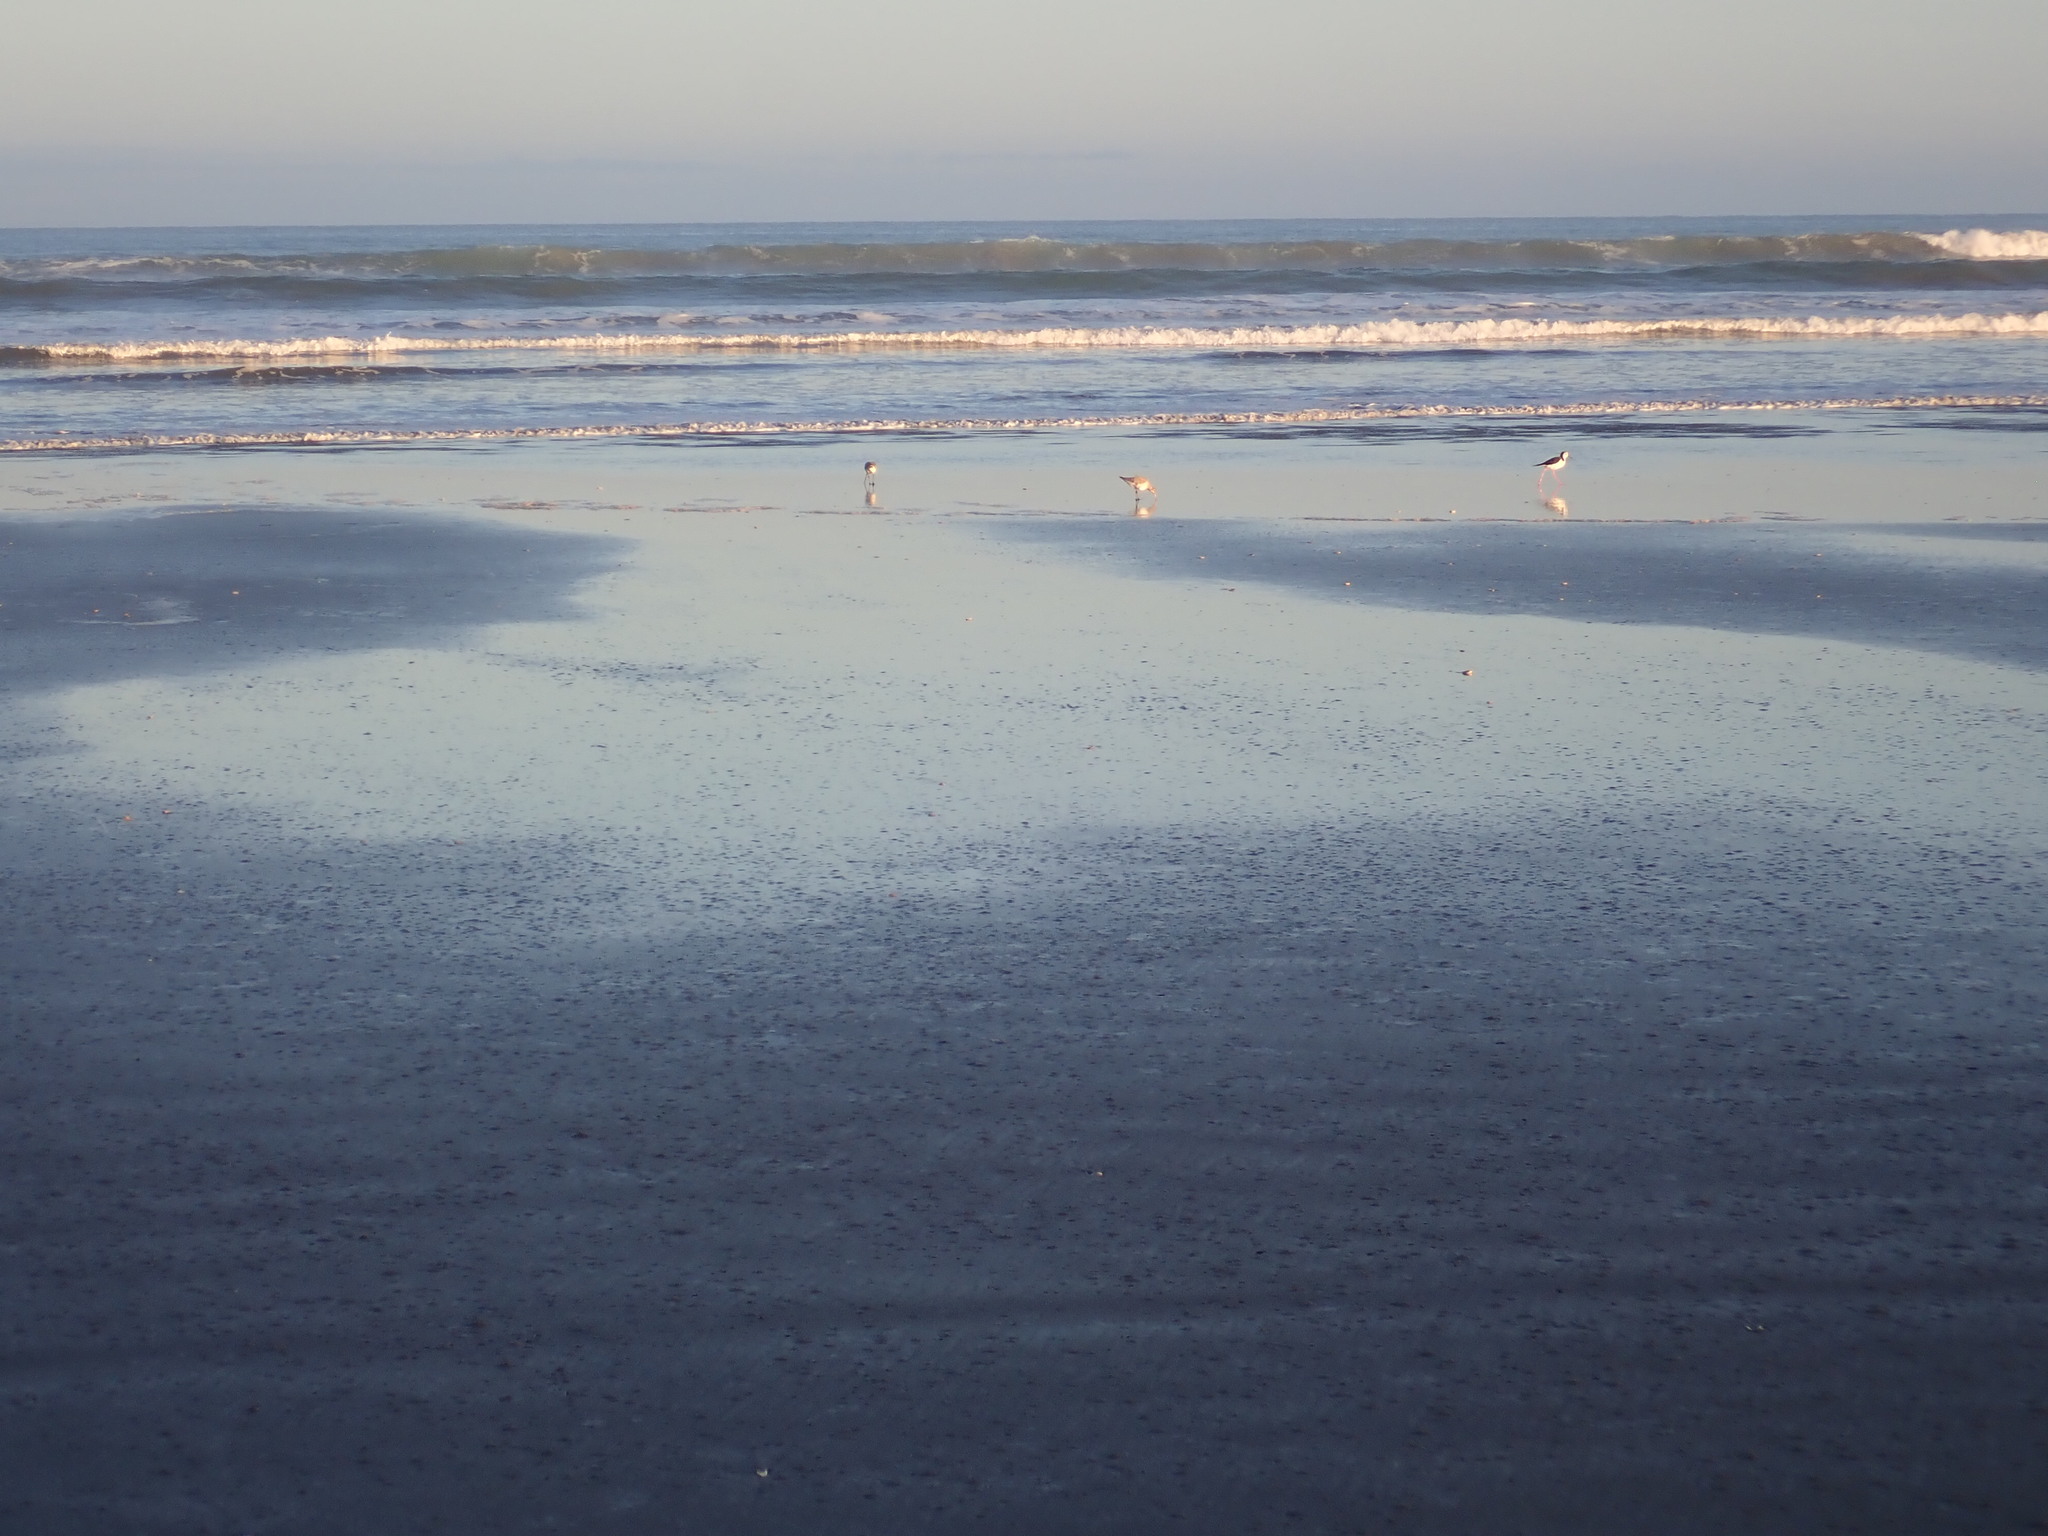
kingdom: Animalia
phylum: Chordata
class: Aves
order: Charadriiformes
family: Scolopacidae
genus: Limosa
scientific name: Limosa lapponica
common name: Bar-tailed godwit
